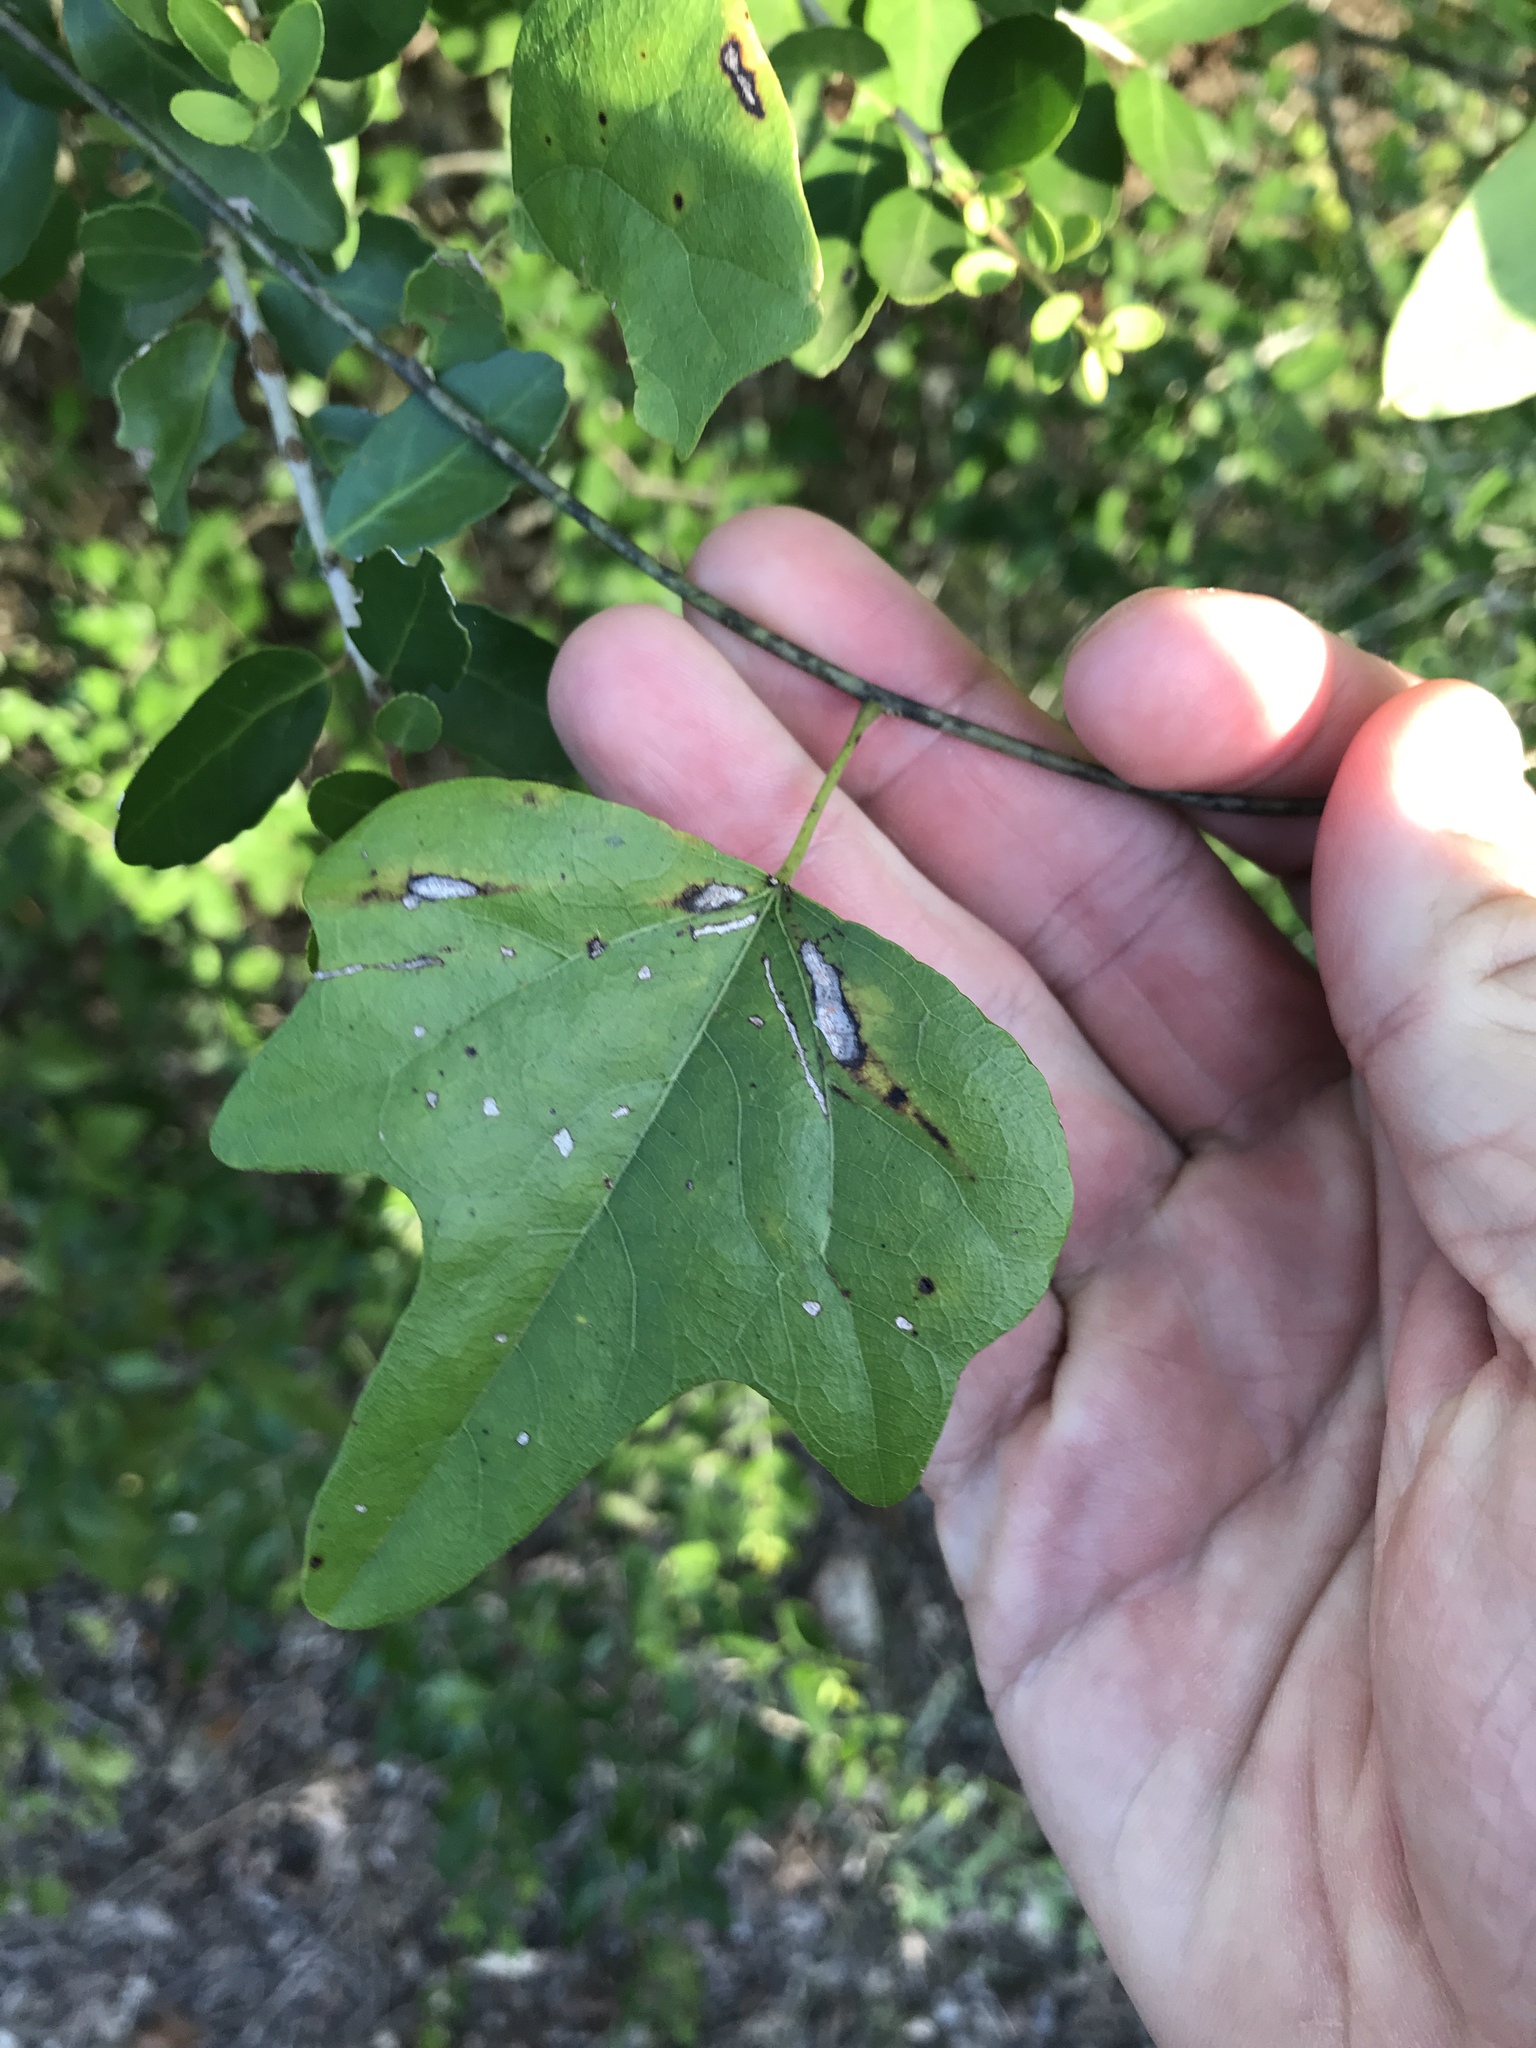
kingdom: Plantae
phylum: Tracheophyta
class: Magnoliopsida
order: Ranunculales
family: Menispermaceae
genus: Cocculus
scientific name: Cocculus carolinus
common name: Carolina moonseed
